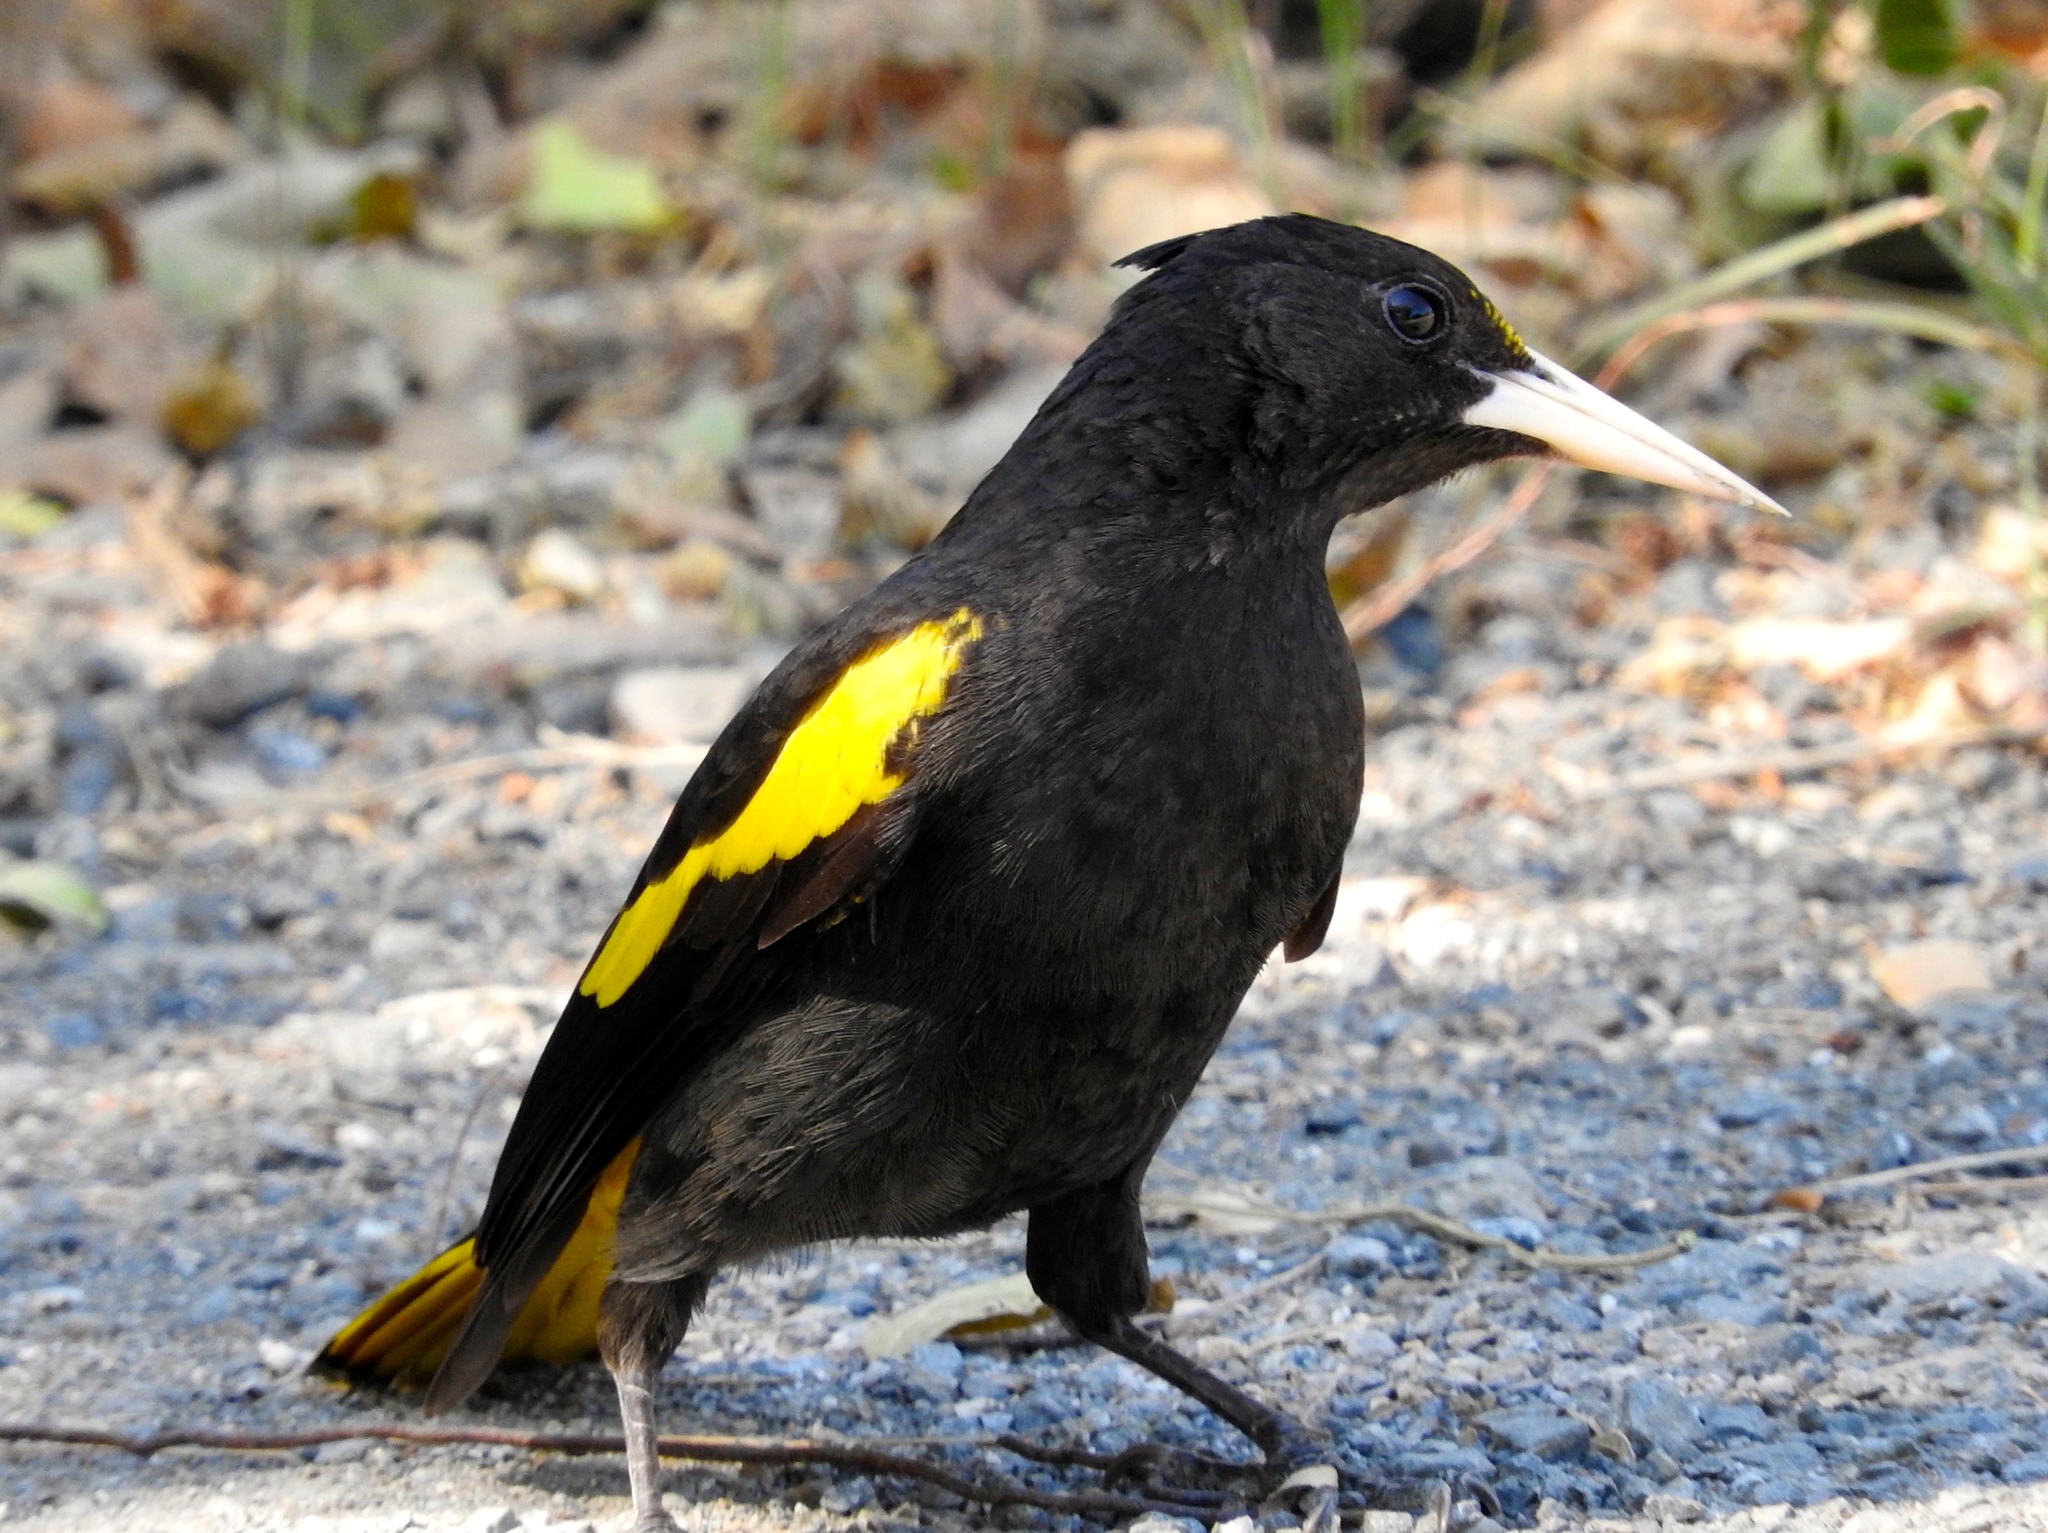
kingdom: Animalia
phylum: Chordata
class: Aves
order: Passeriformes
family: Icteridae
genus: Cacicus
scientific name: Cacicus melanicterus
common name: Yellow-winged cacique
